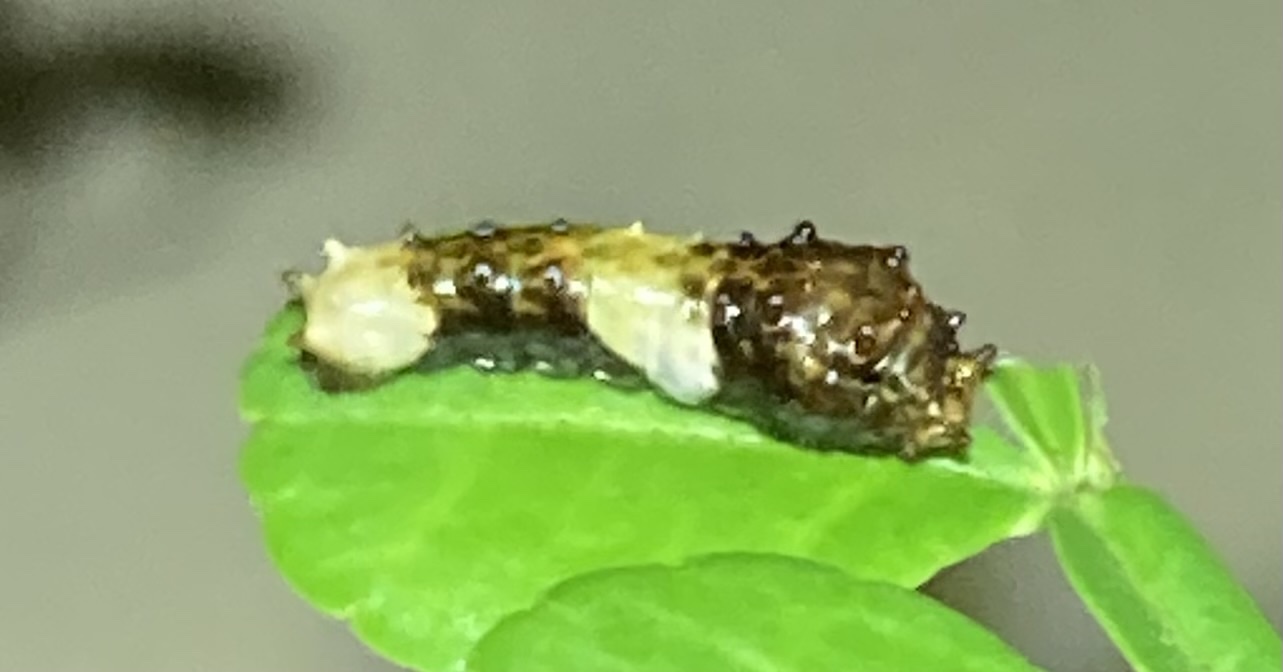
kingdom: Animalia
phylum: Arthropoda
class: Insecta
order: Lepidoptera
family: Papilionidae
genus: Papilio
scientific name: Papilio cresphontes
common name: Giant swallowtail
